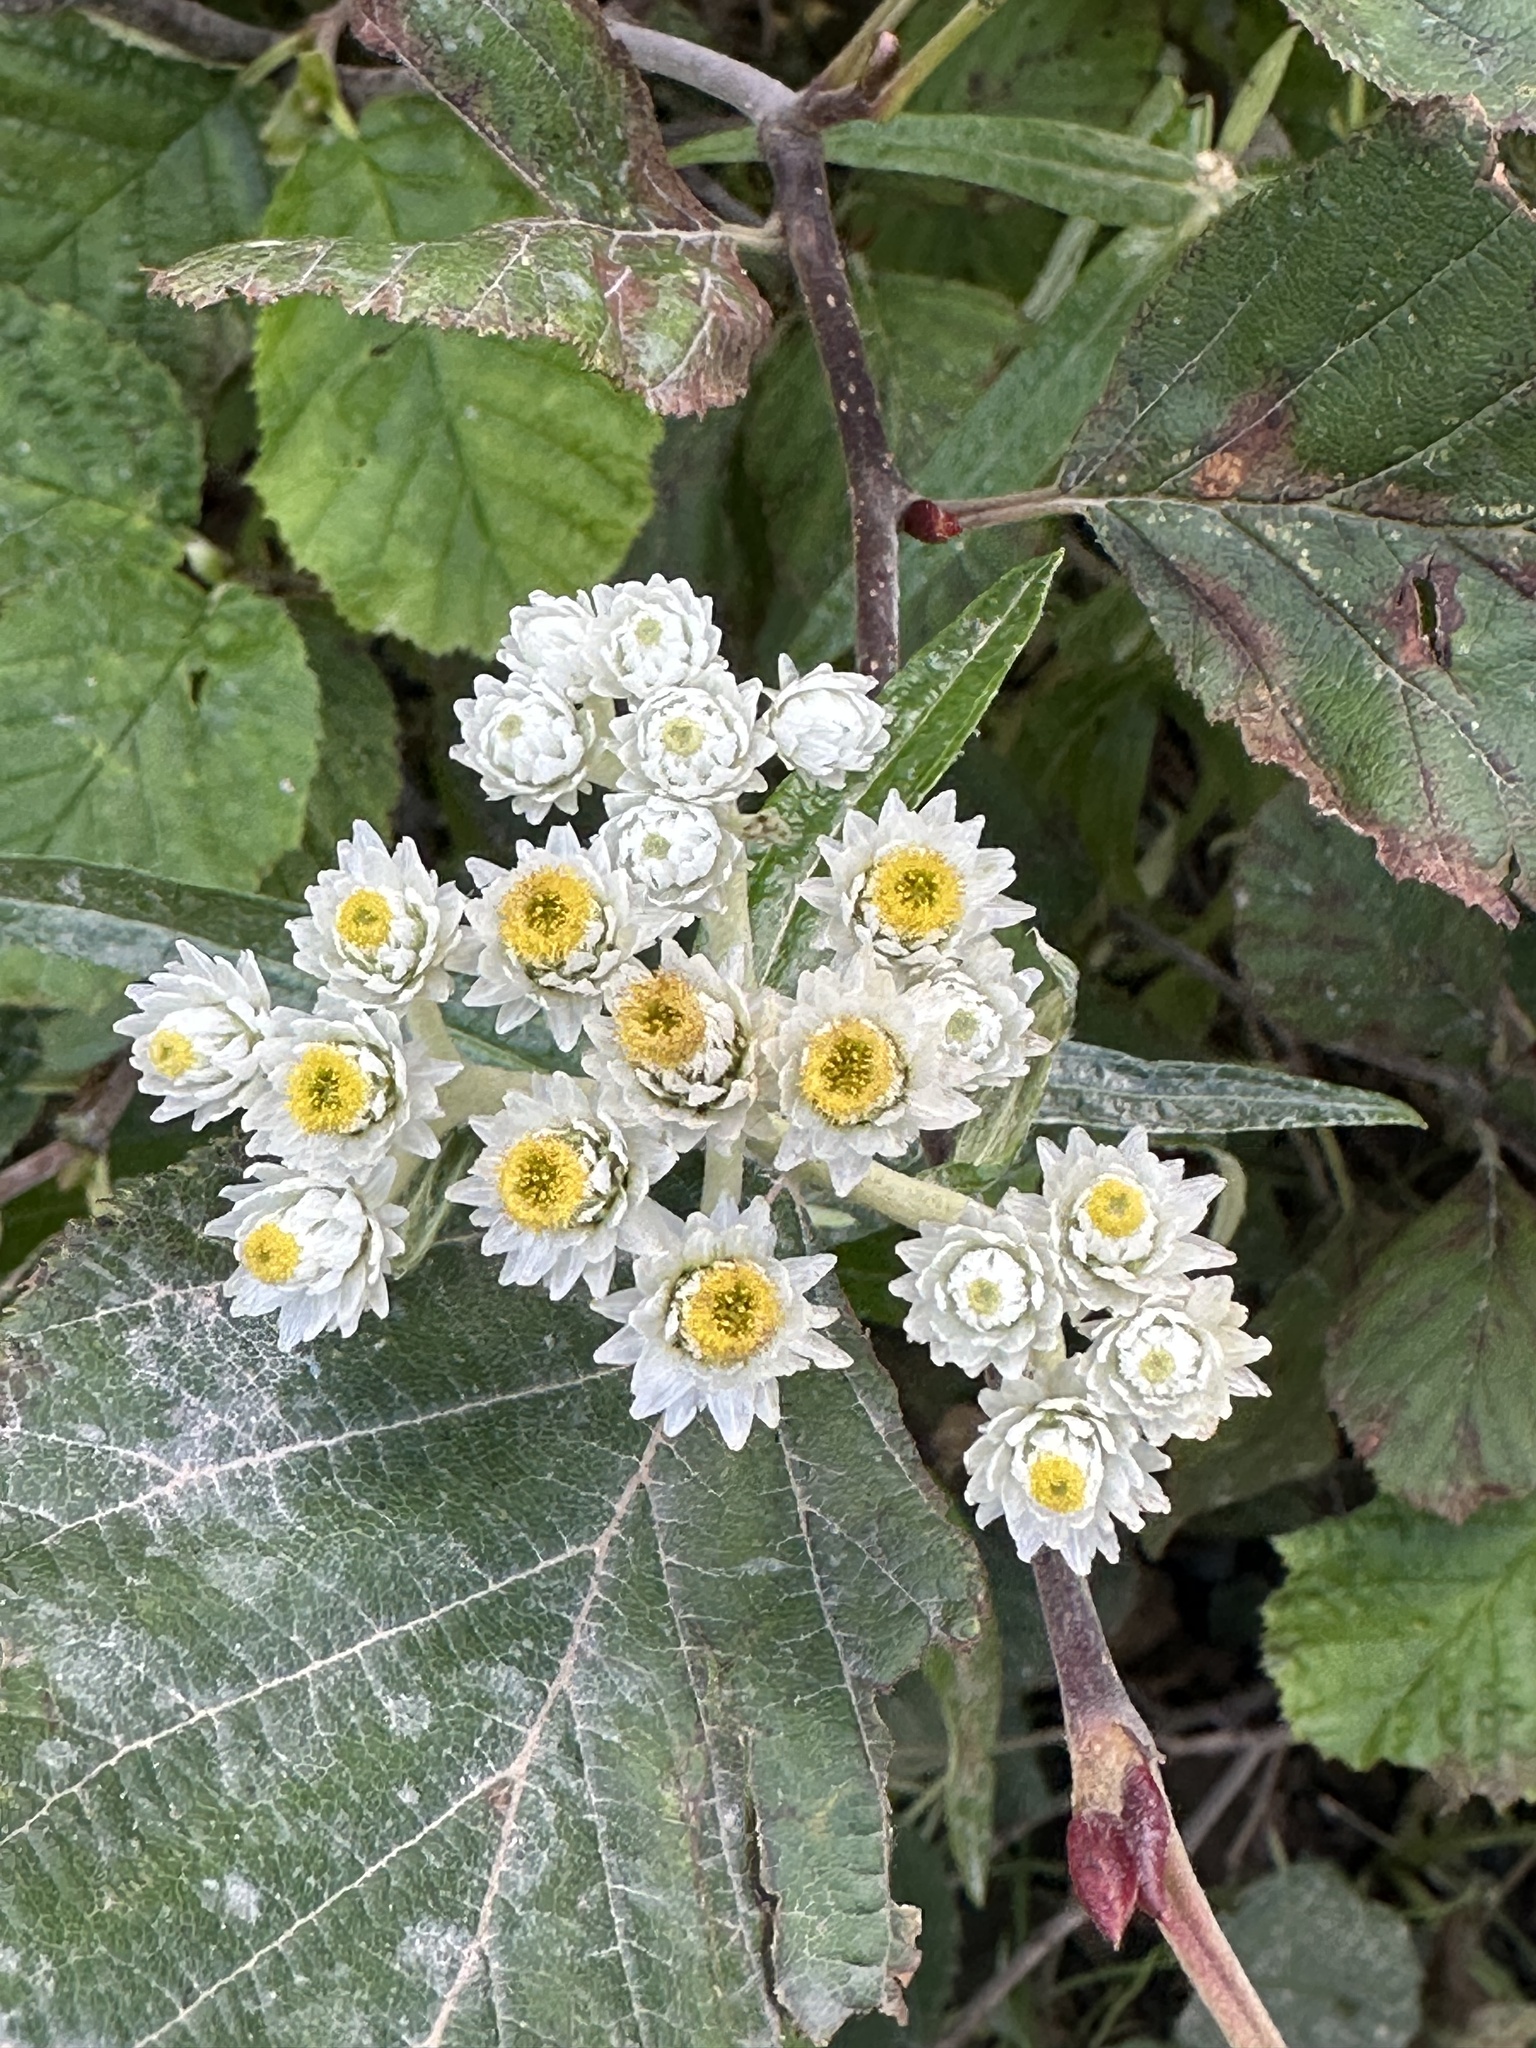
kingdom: Plantae
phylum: Tracheophyta
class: Magnoliopsida
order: Asterales
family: Asteraceae
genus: Anaphalis
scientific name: Anaphalis margaritacea
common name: Pearly everlasting
